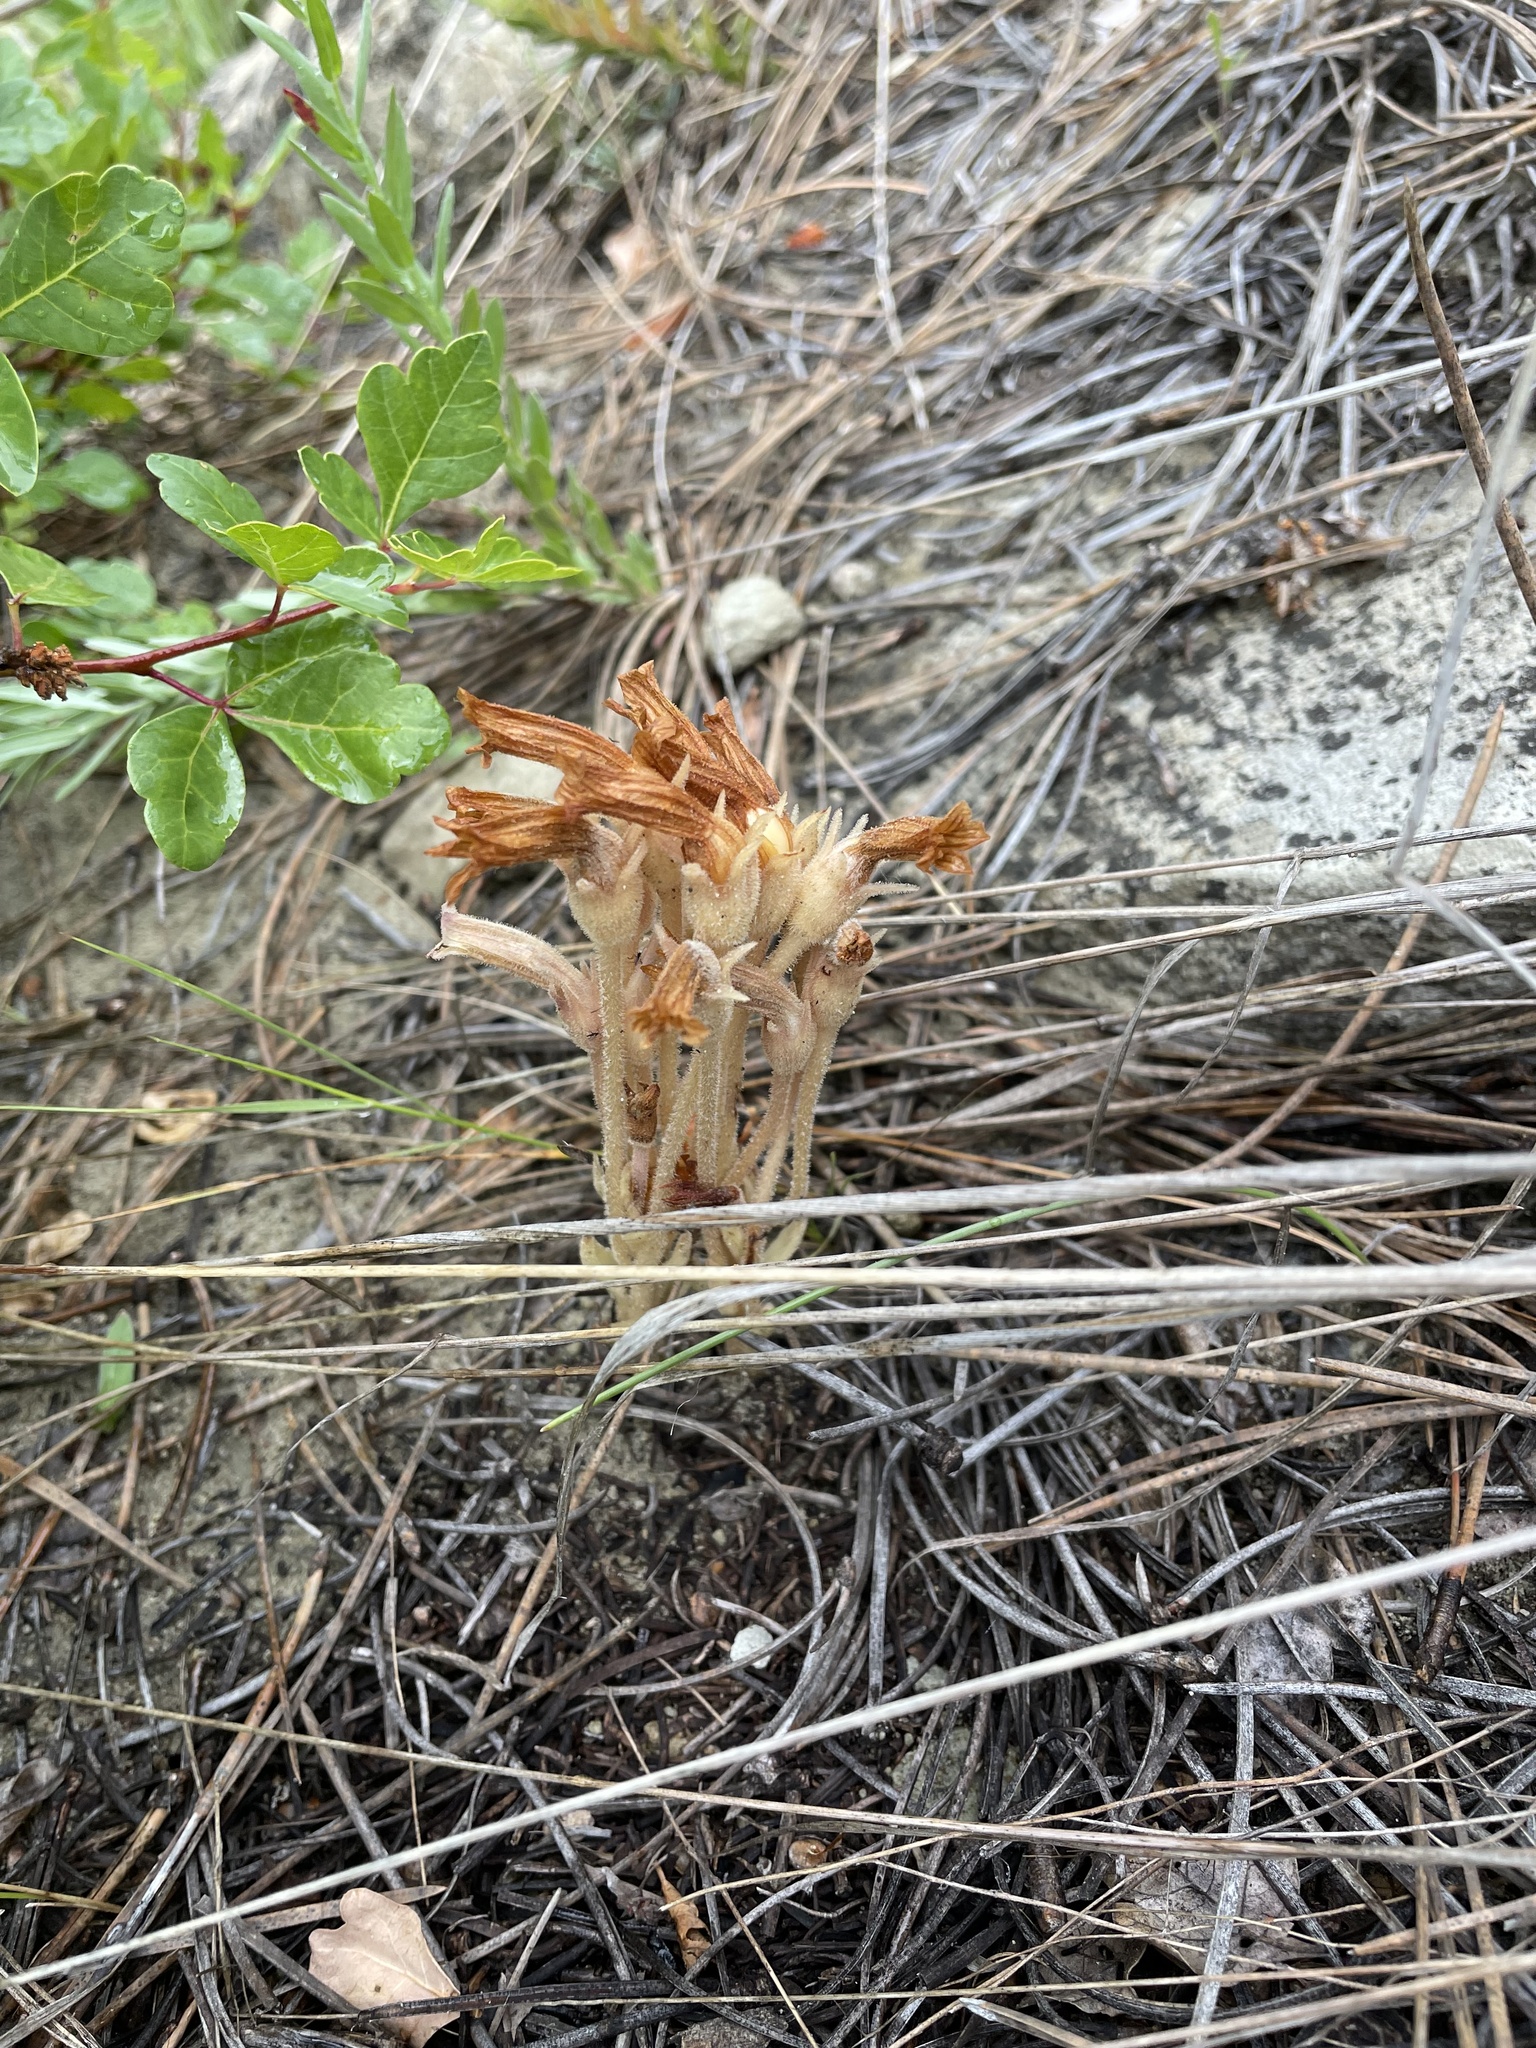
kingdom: Plantae
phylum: Tracheophyta
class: Magnoliopsida
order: Lamiales
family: Orobanchaceae
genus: Aphyllon
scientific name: Aphyllon fasciculatum
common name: Clustered broomrape
